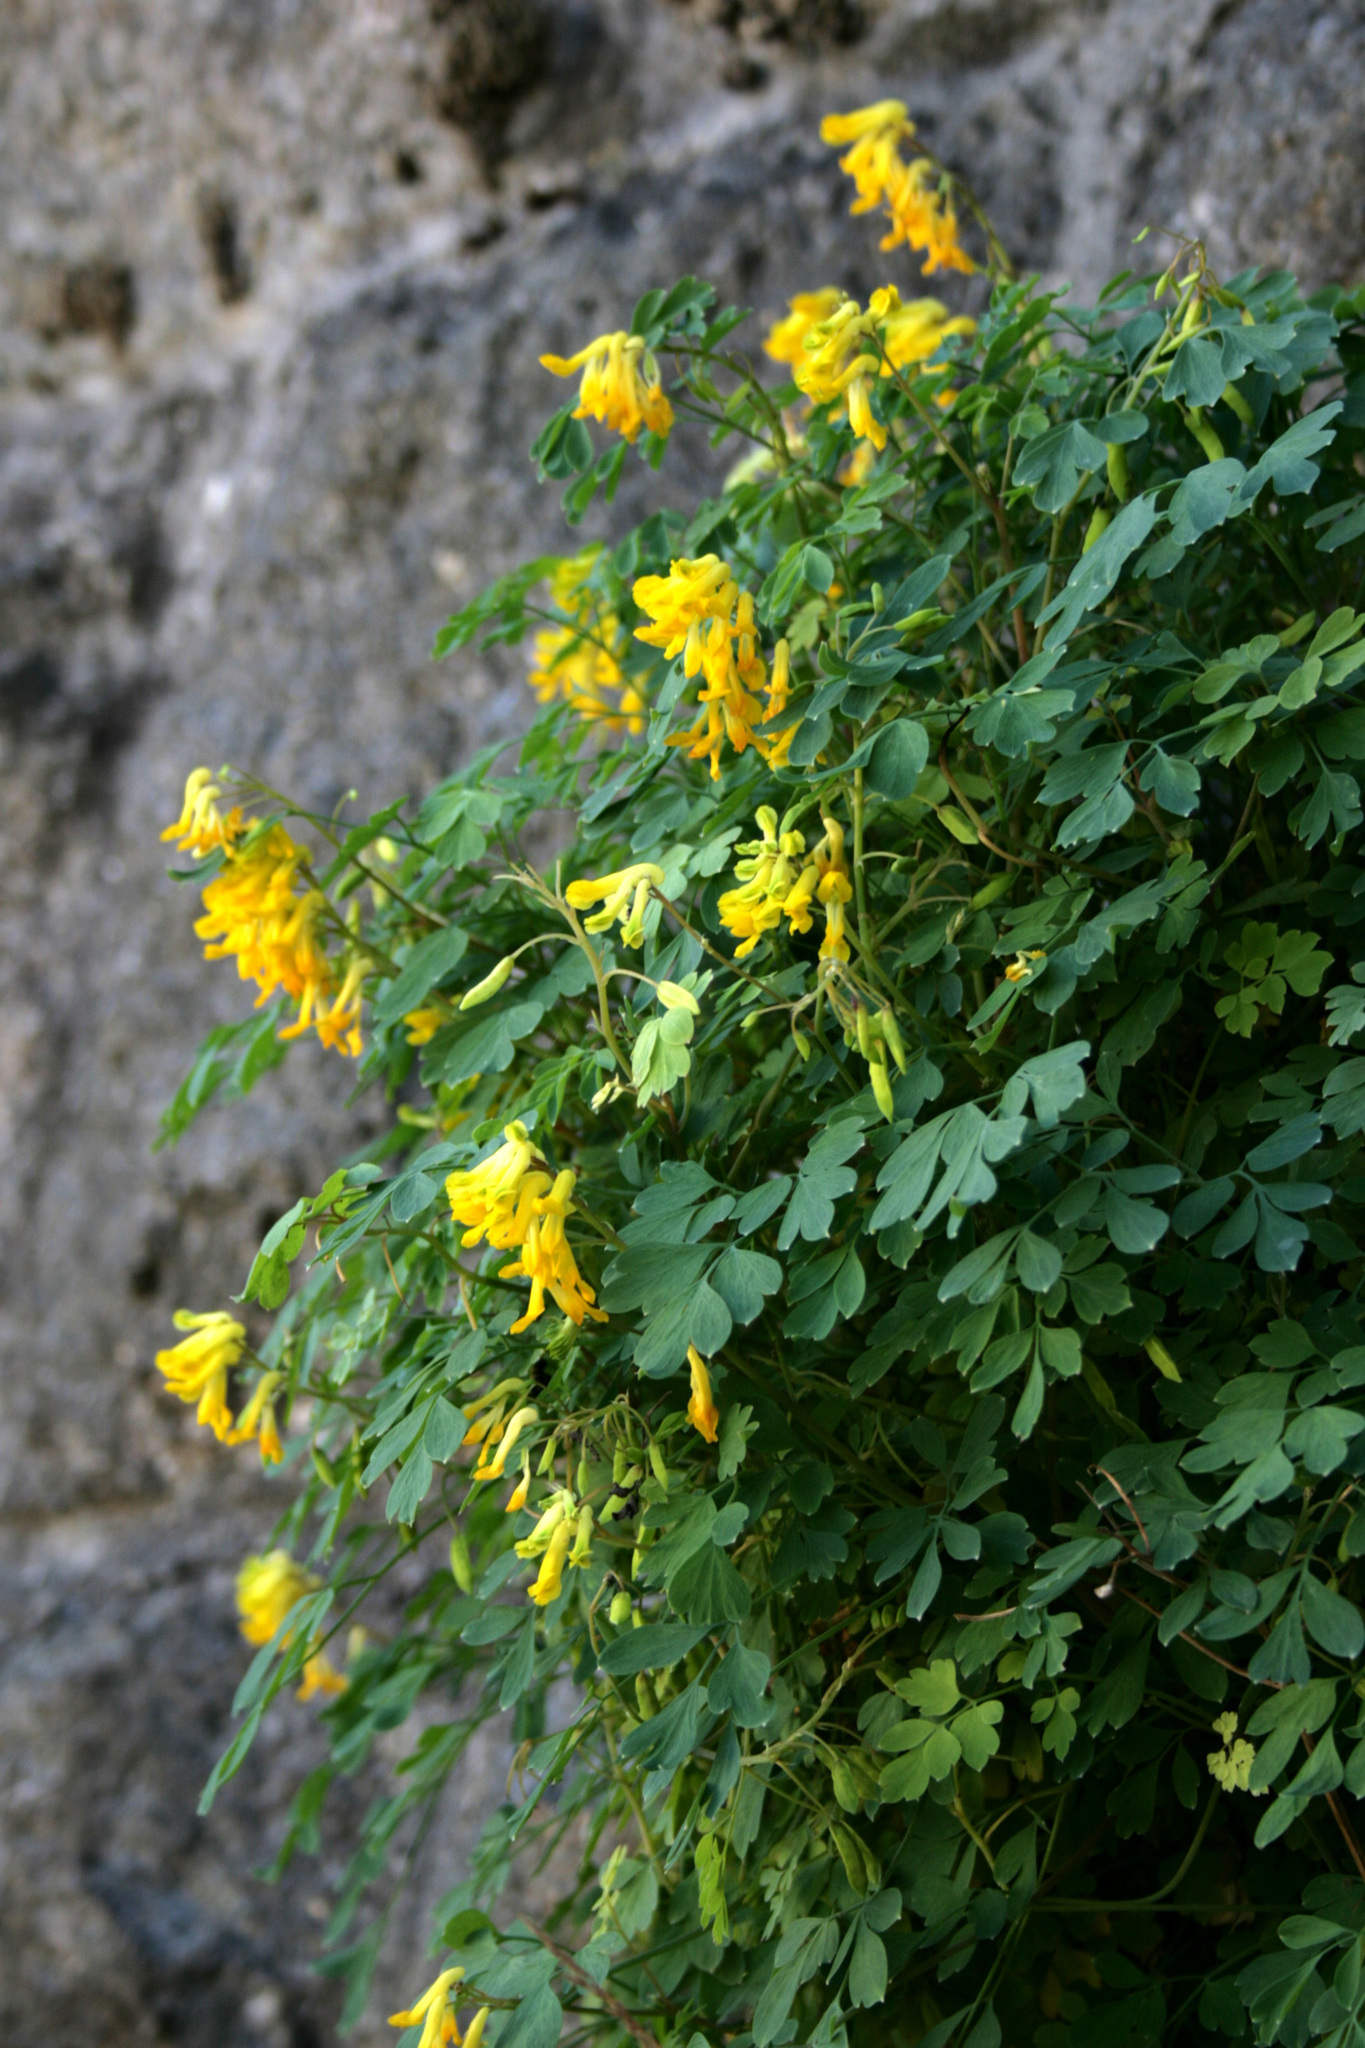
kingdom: Plantae
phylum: Tracheophyta
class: Magnoliopsida
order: Ranunculales
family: Papaveraceae
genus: Pseudofumaria
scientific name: Pseudofumaria lutea
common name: Yellow corydalis
